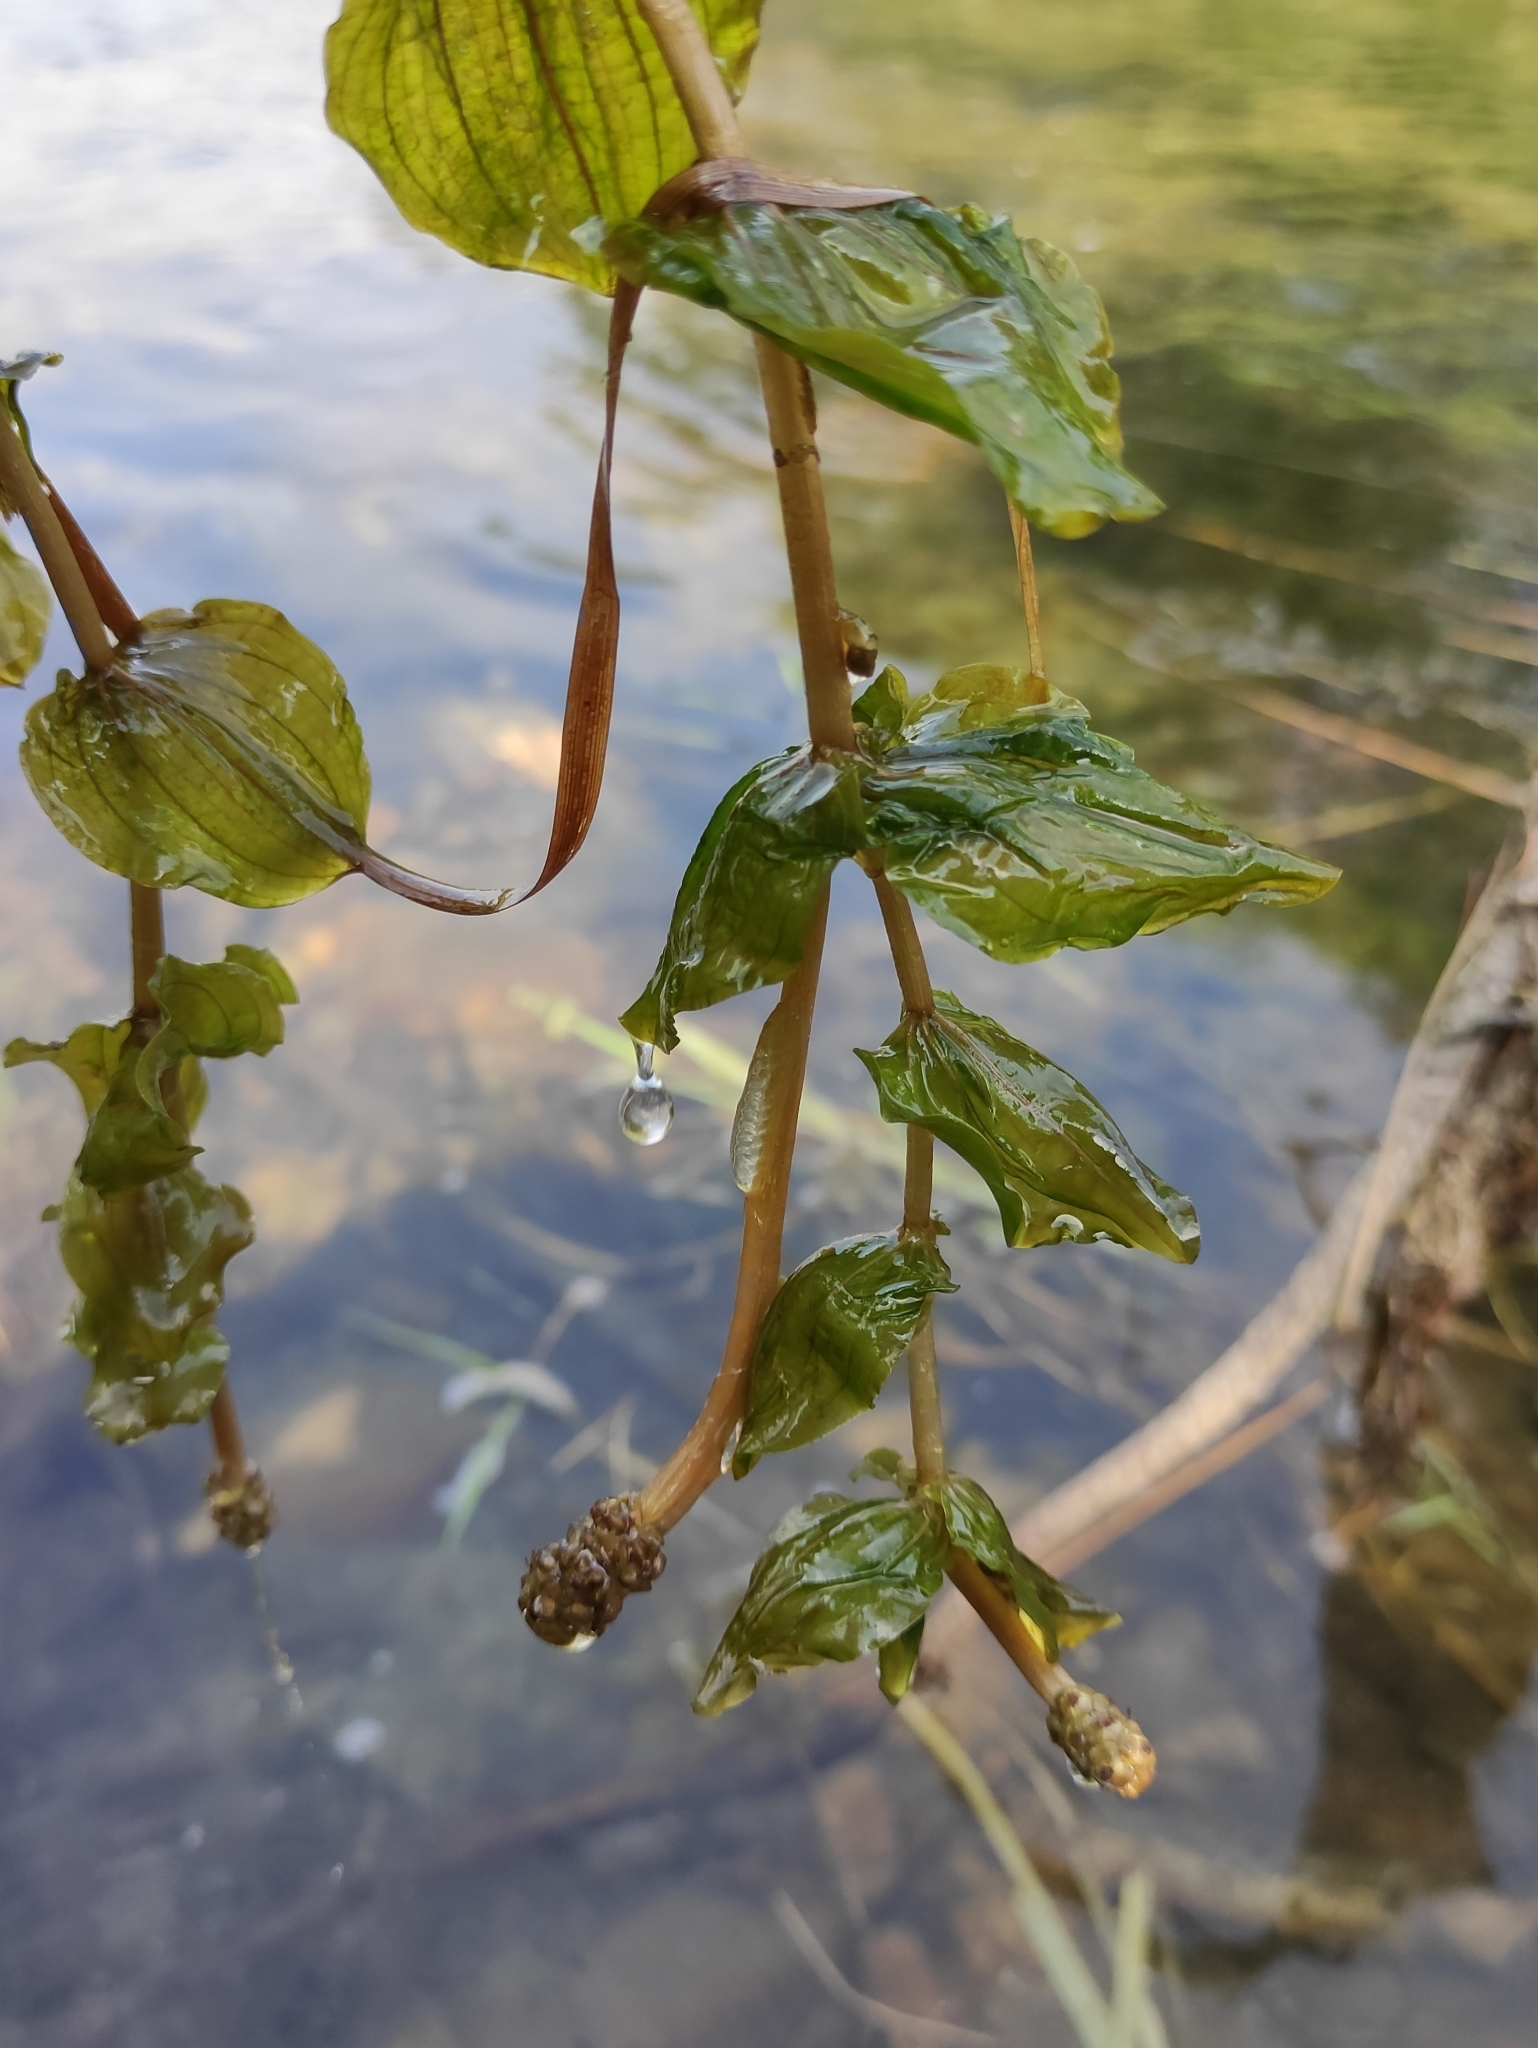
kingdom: Plantae
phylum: Tracheophyta
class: Liliopsida
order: Alismatales
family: Potamogetonaceae
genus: Potamogeton
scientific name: Potamogeton perfoliatus
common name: Perfoliate pondweed
